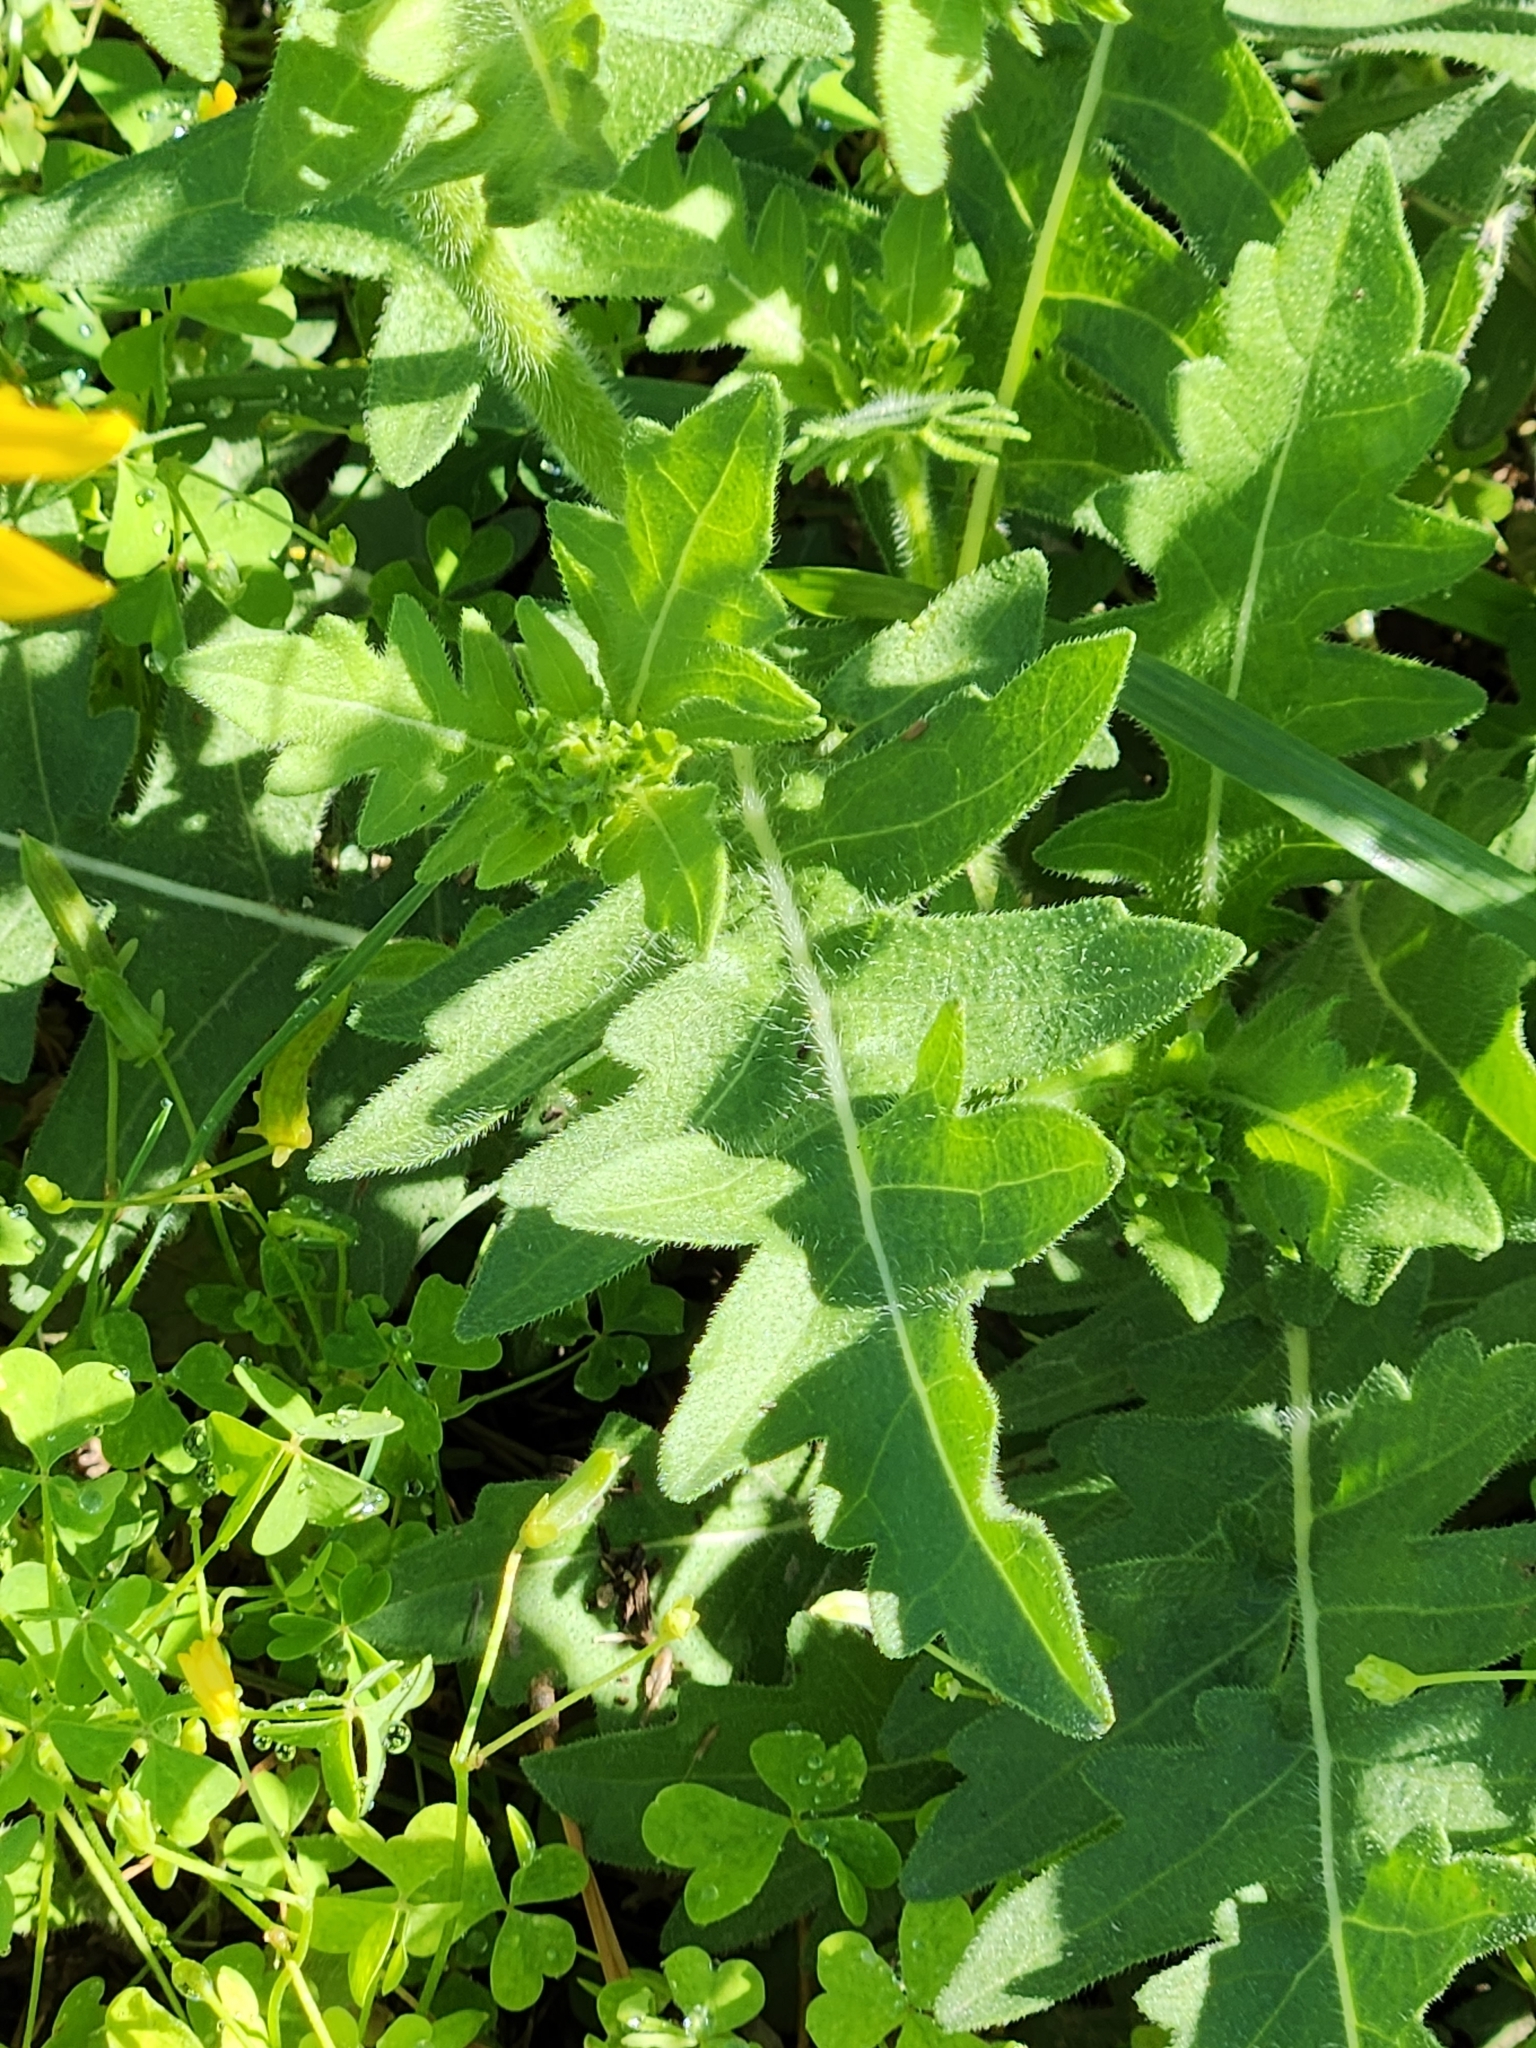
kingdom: Plantae
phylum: Tracheophyta
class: Magnoliopsida
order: Asterales
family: Asteraceae
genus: Engelmannia
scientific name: Engelmannia peristenia
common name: Engelmann's daisy
